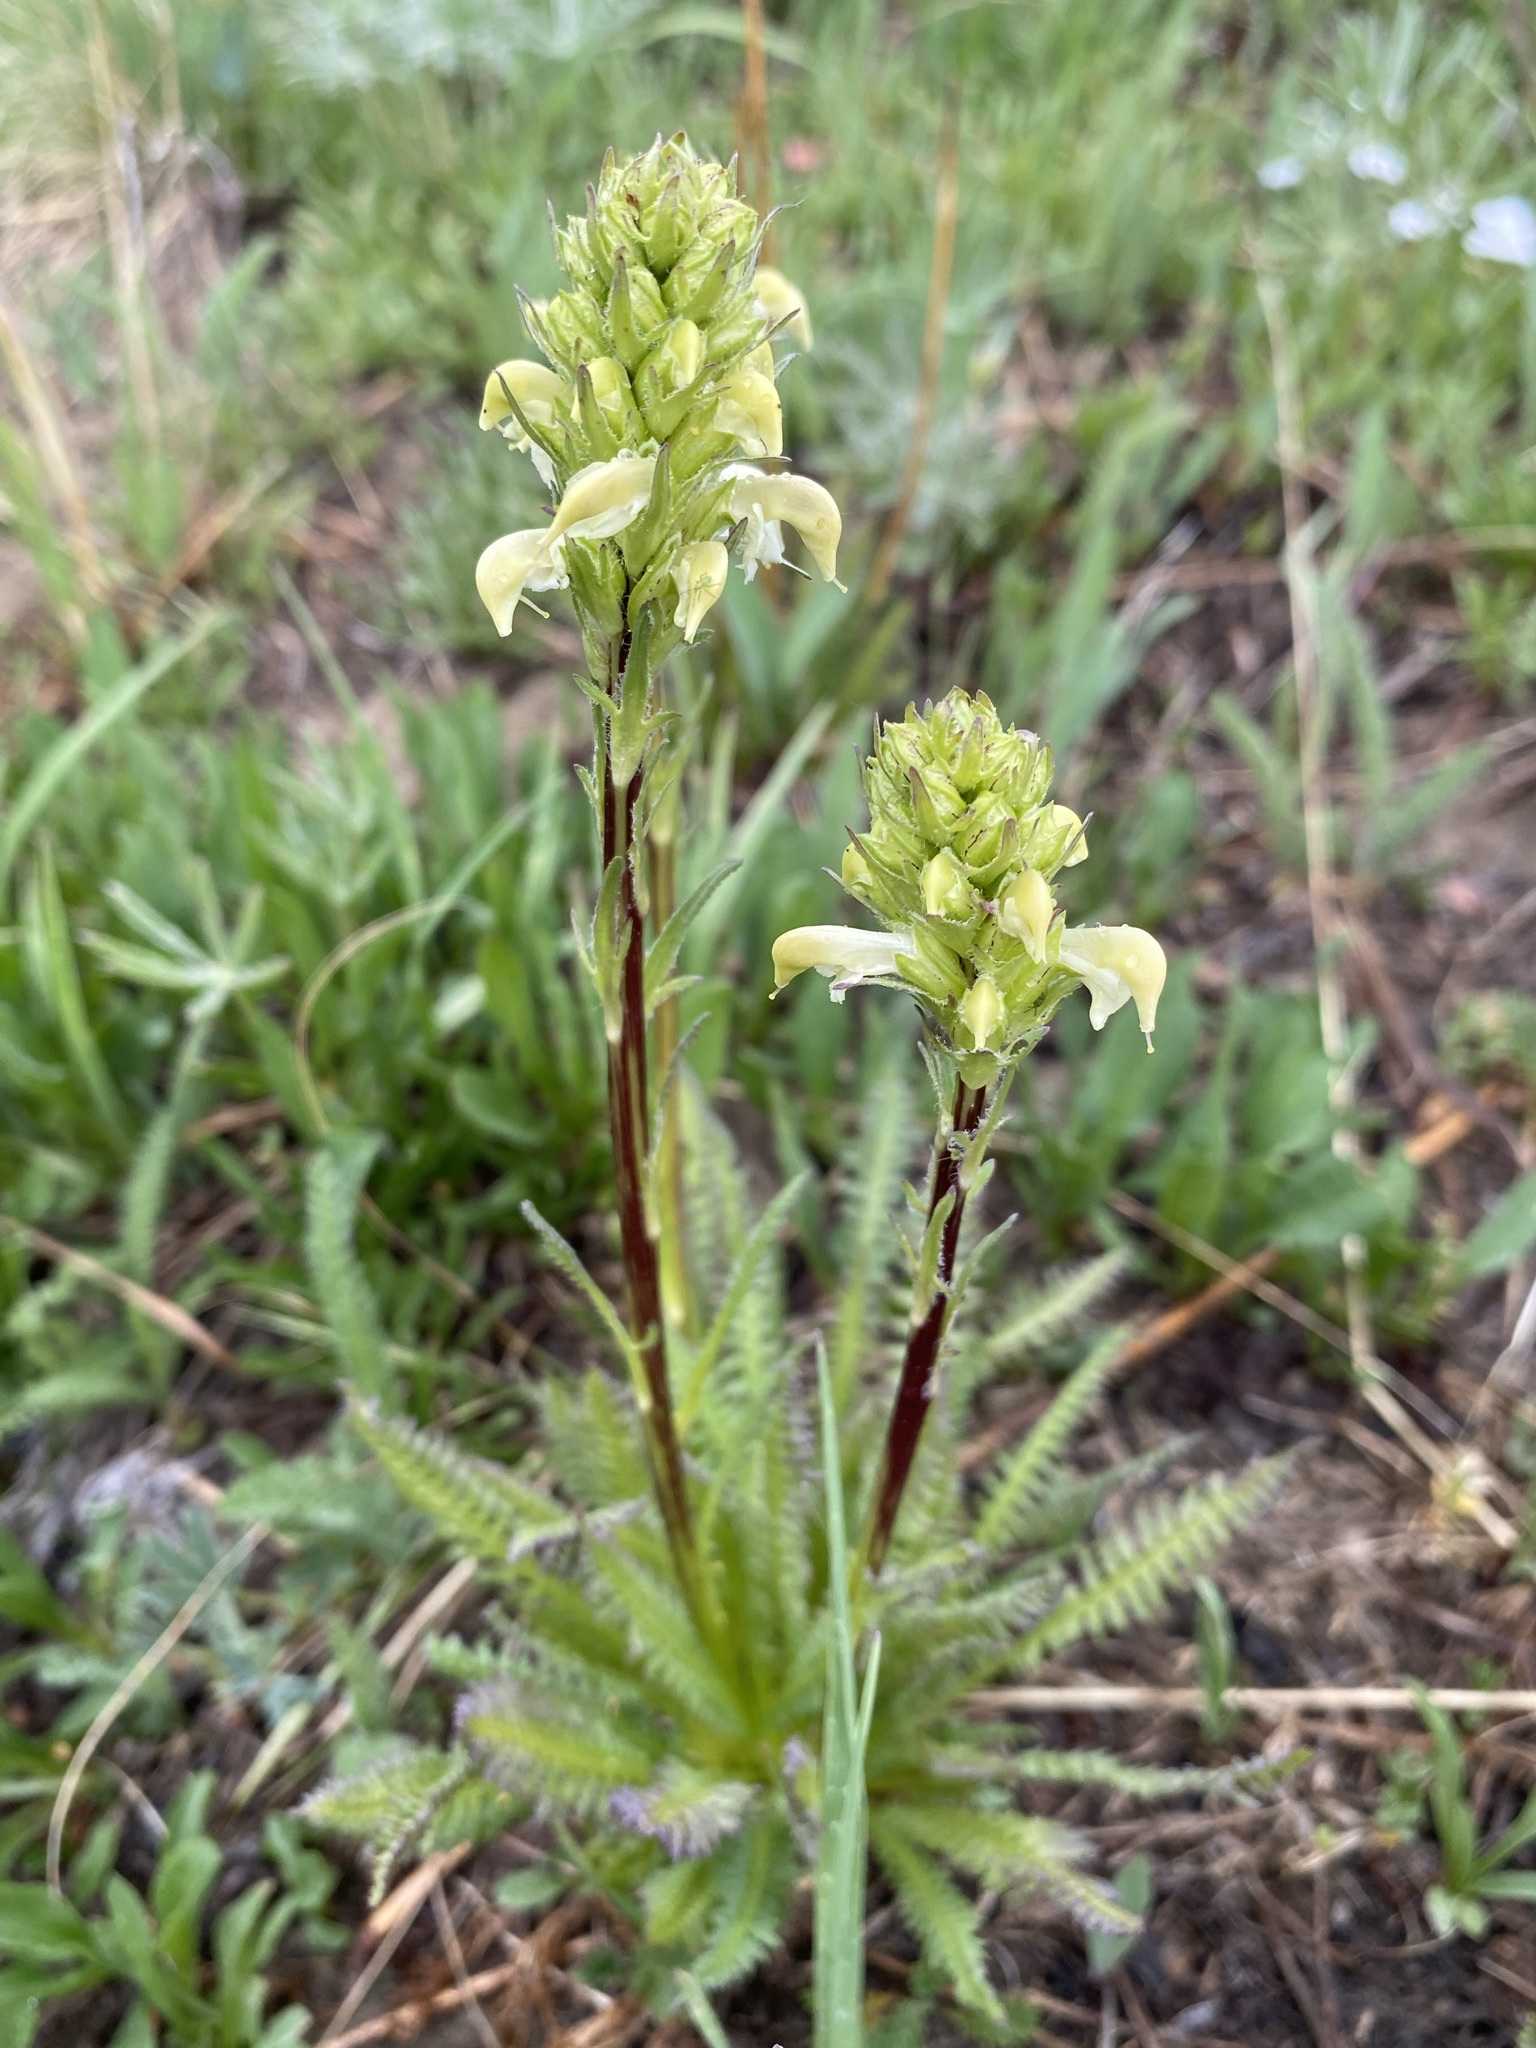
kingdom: Plantae
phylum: Tracheophyta
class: Magnoliopsida
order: Lamiales
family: Orobanchaceae
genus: Pedicularis
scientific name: Pedicularis parryi
